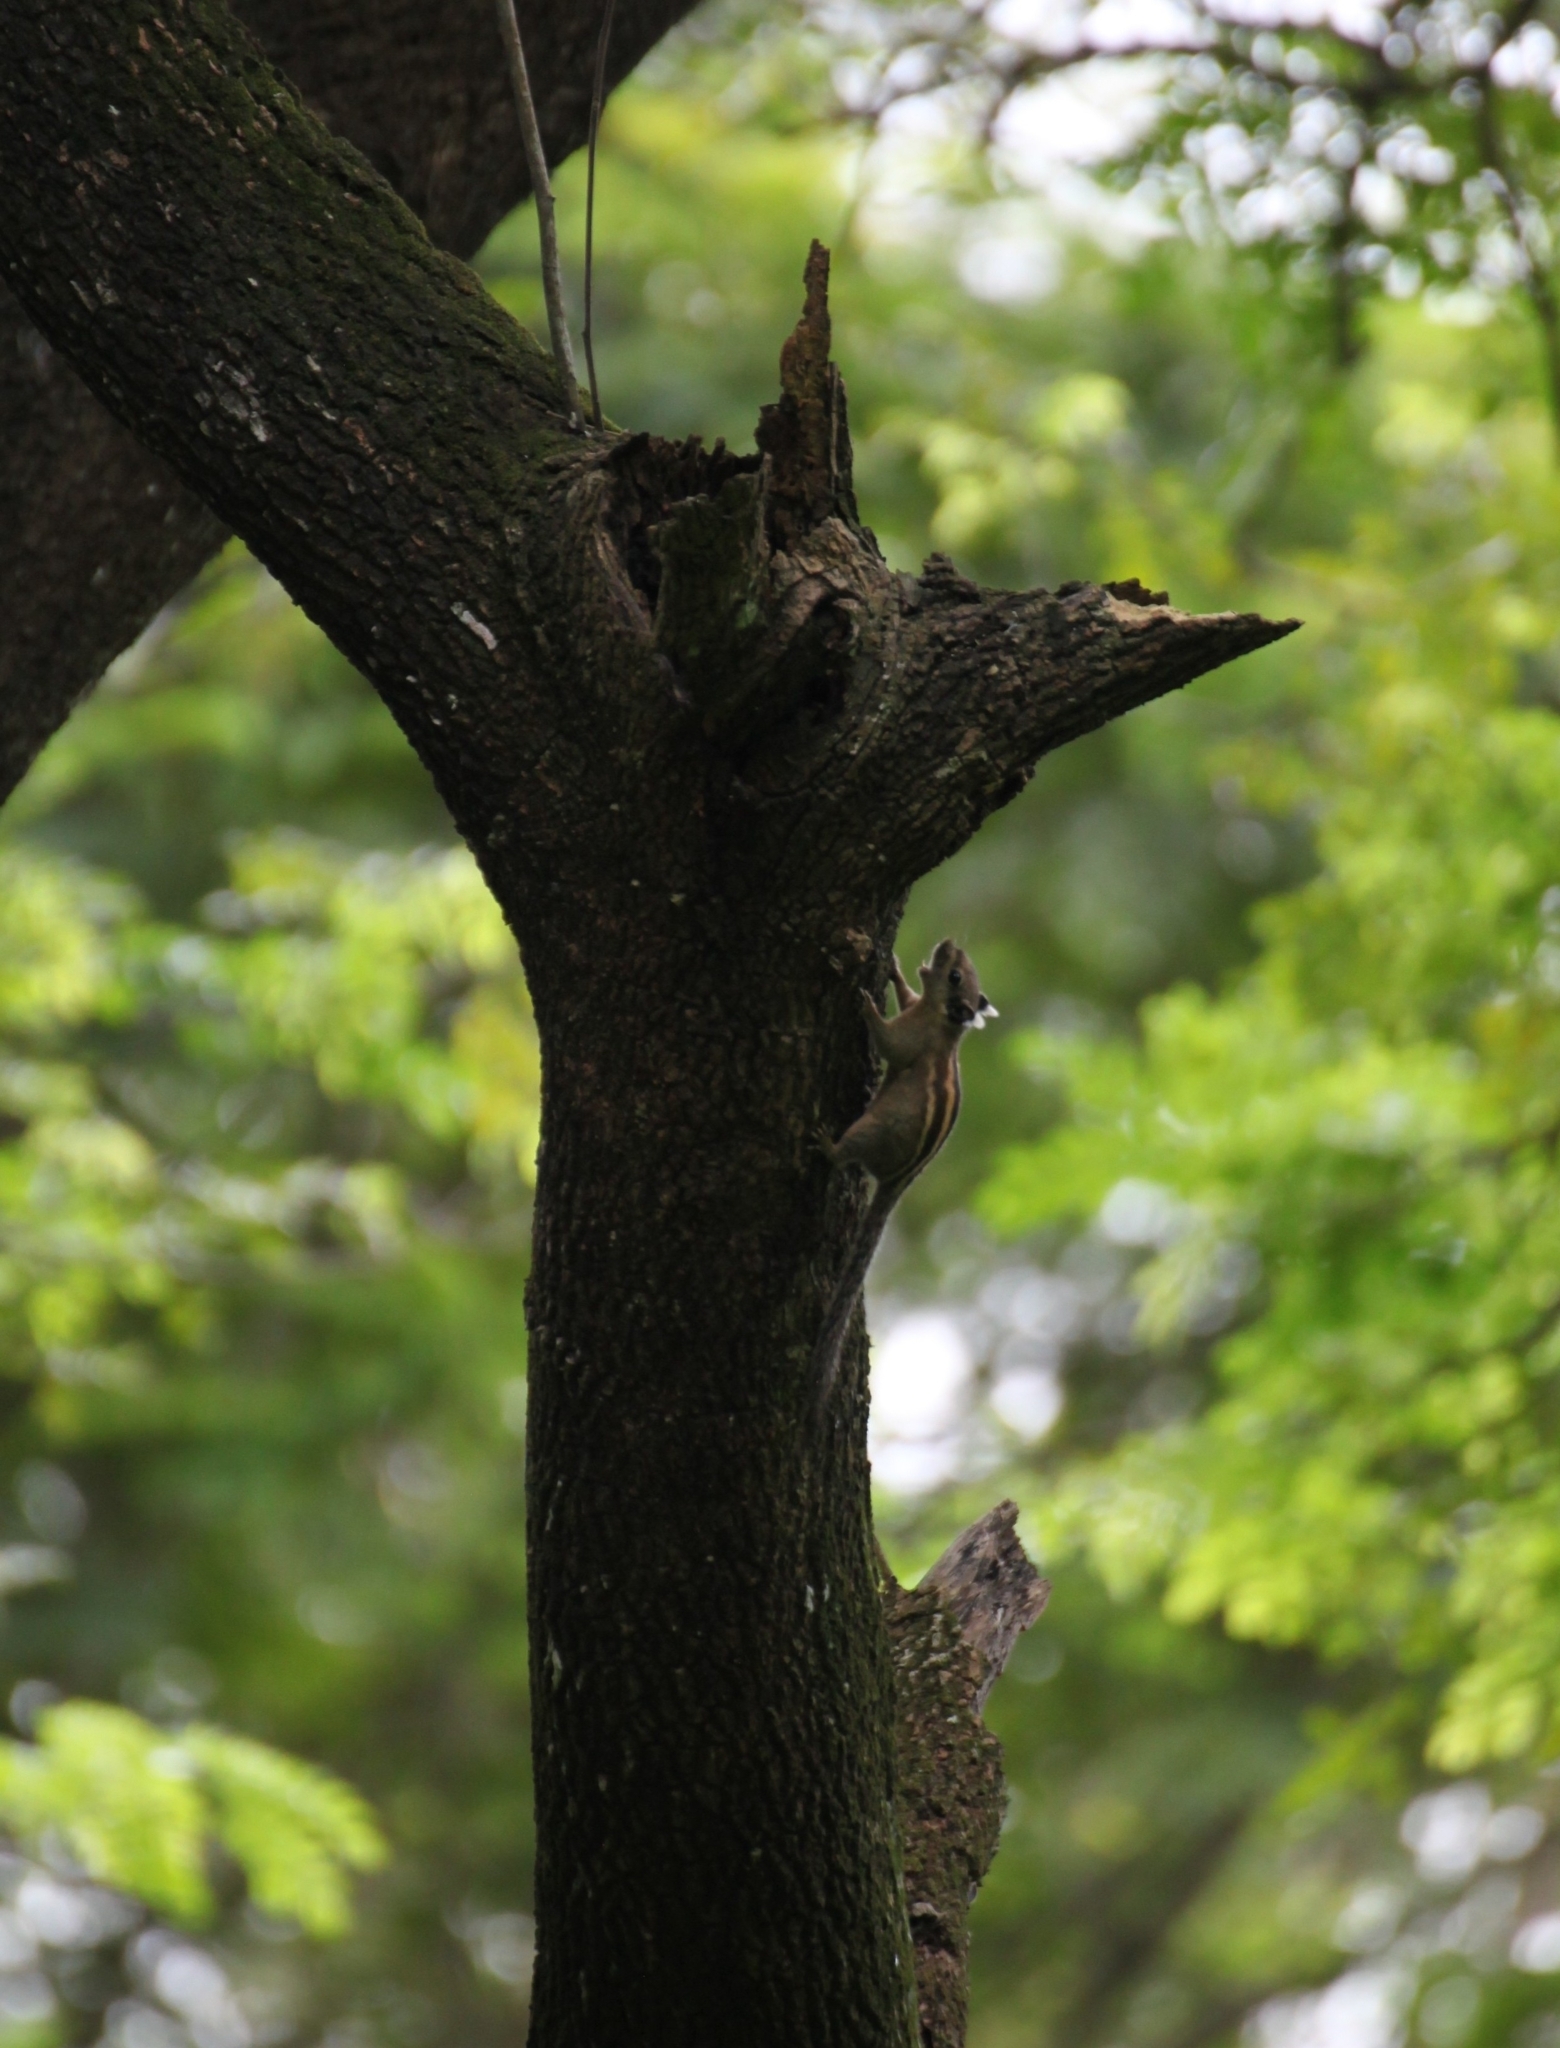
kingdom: Animalia
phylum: Chordata
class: Mammalia
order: Rodentia
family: Sciuridae
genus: Tamiops
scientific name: Tamiops rodolphii
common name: Cambodian striped squirrel
